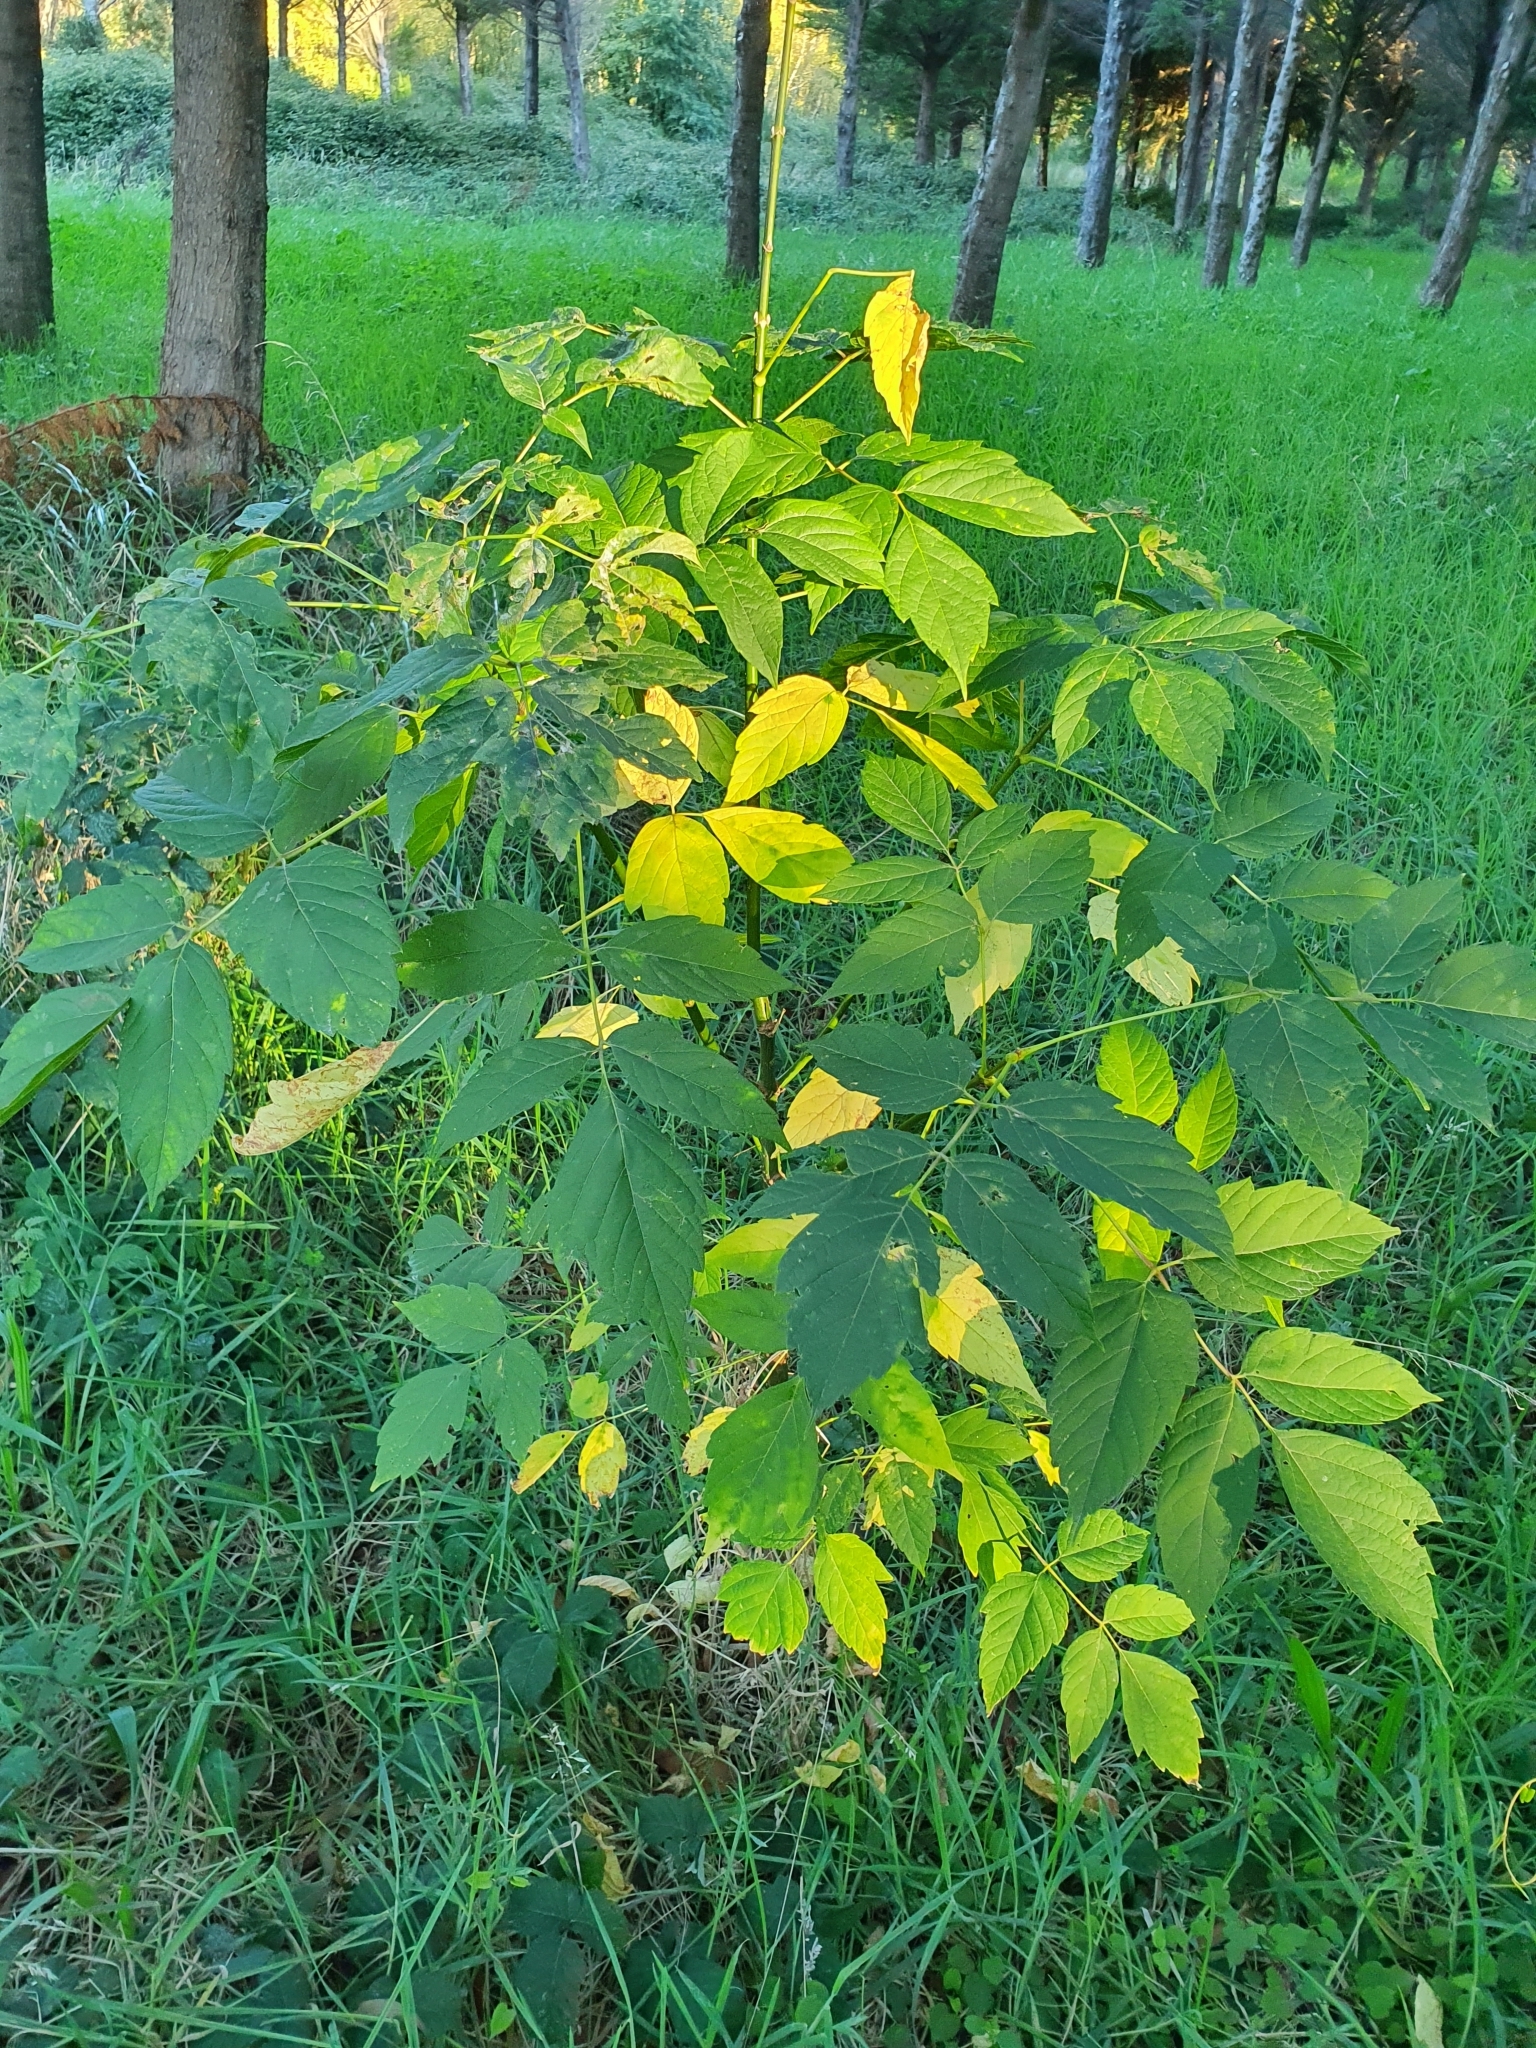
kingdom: Plantae
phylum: Tracheophyta
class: Magnoliopsida
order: Sapindales
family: Sapindaceae
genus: Acer
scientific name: Acer negundo
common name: Ashleaf maple
